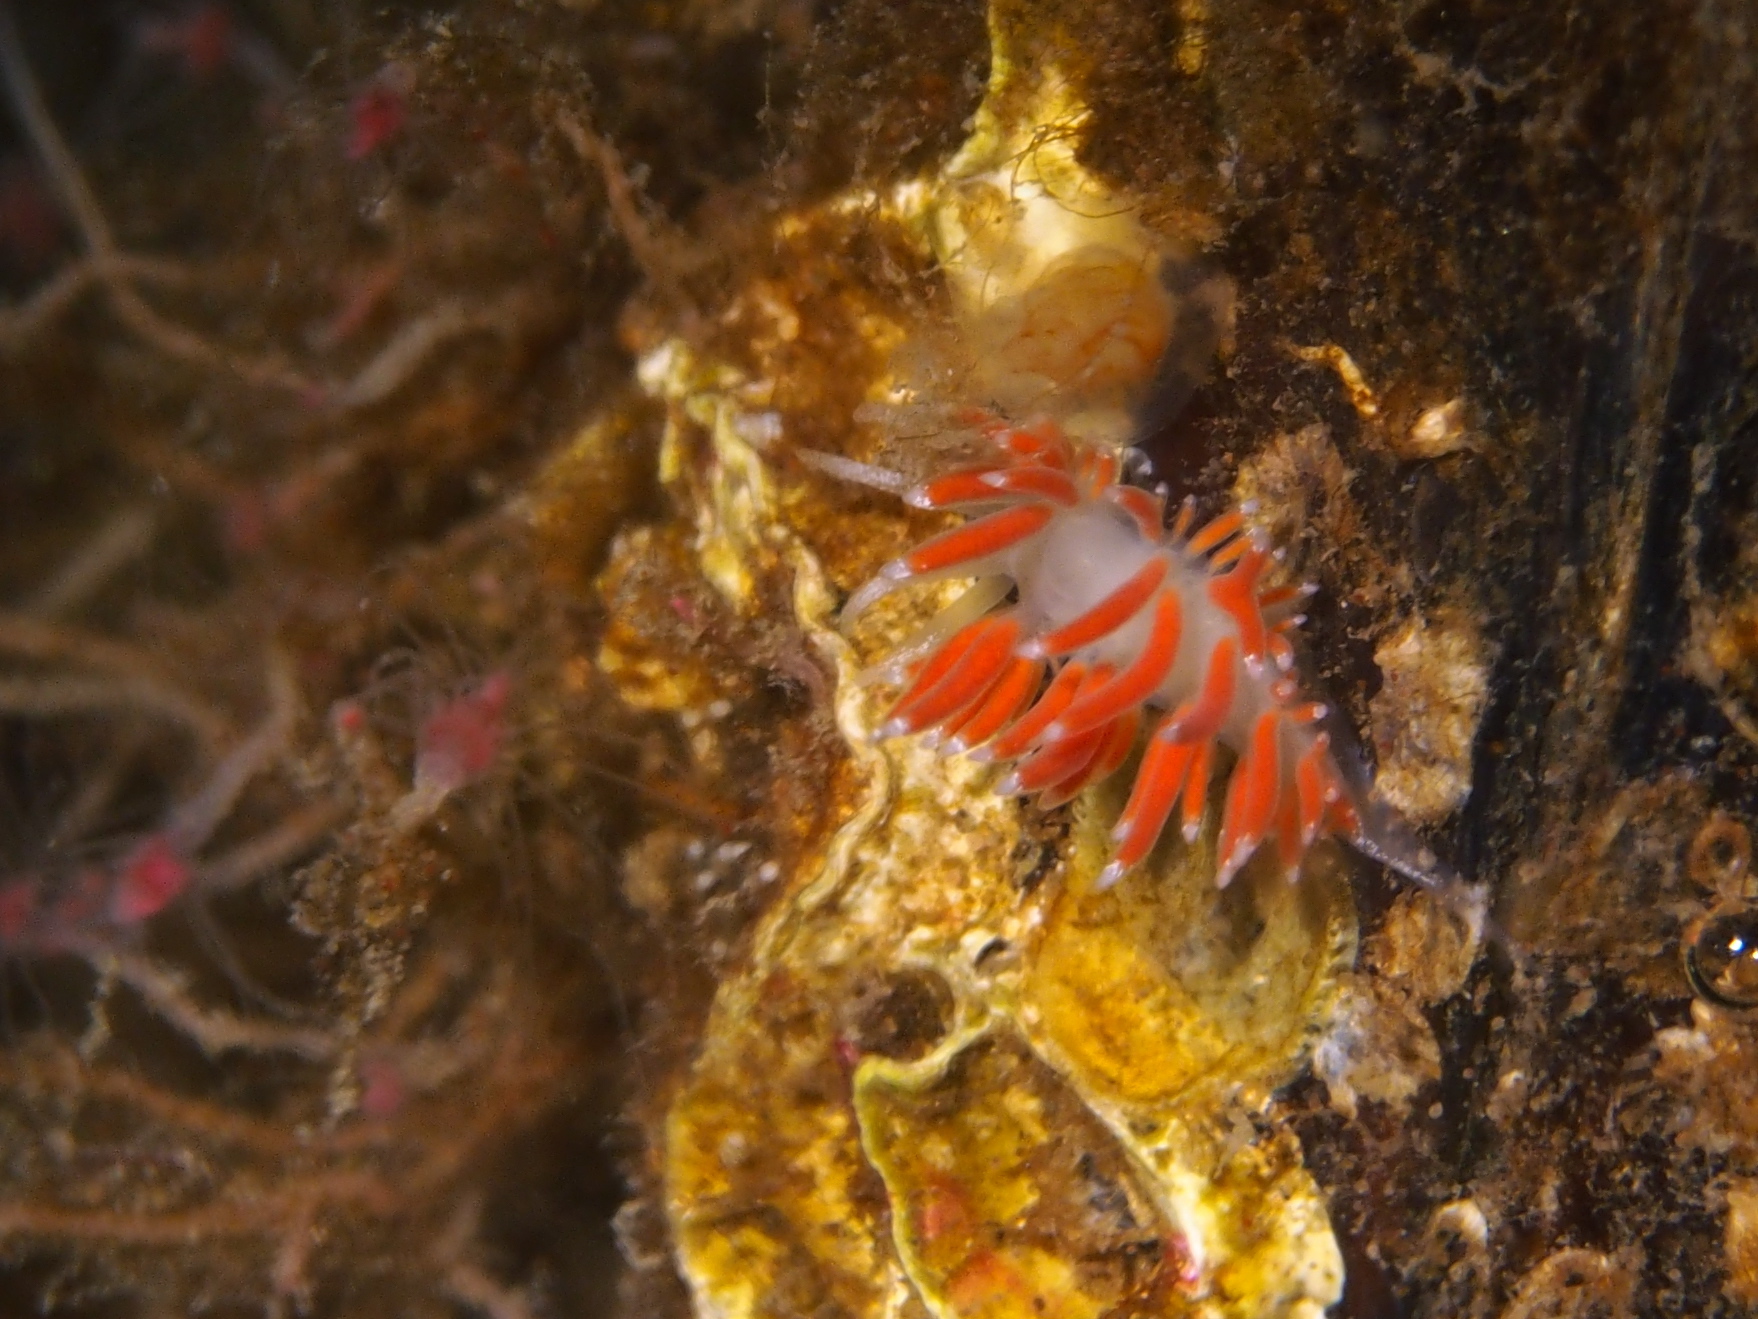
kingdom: Animalia
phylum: Mollusca
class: Gastropoda
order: Nudibranchia
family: Coryphellidae
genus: Coryphella
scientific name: Coryphella gracilis
